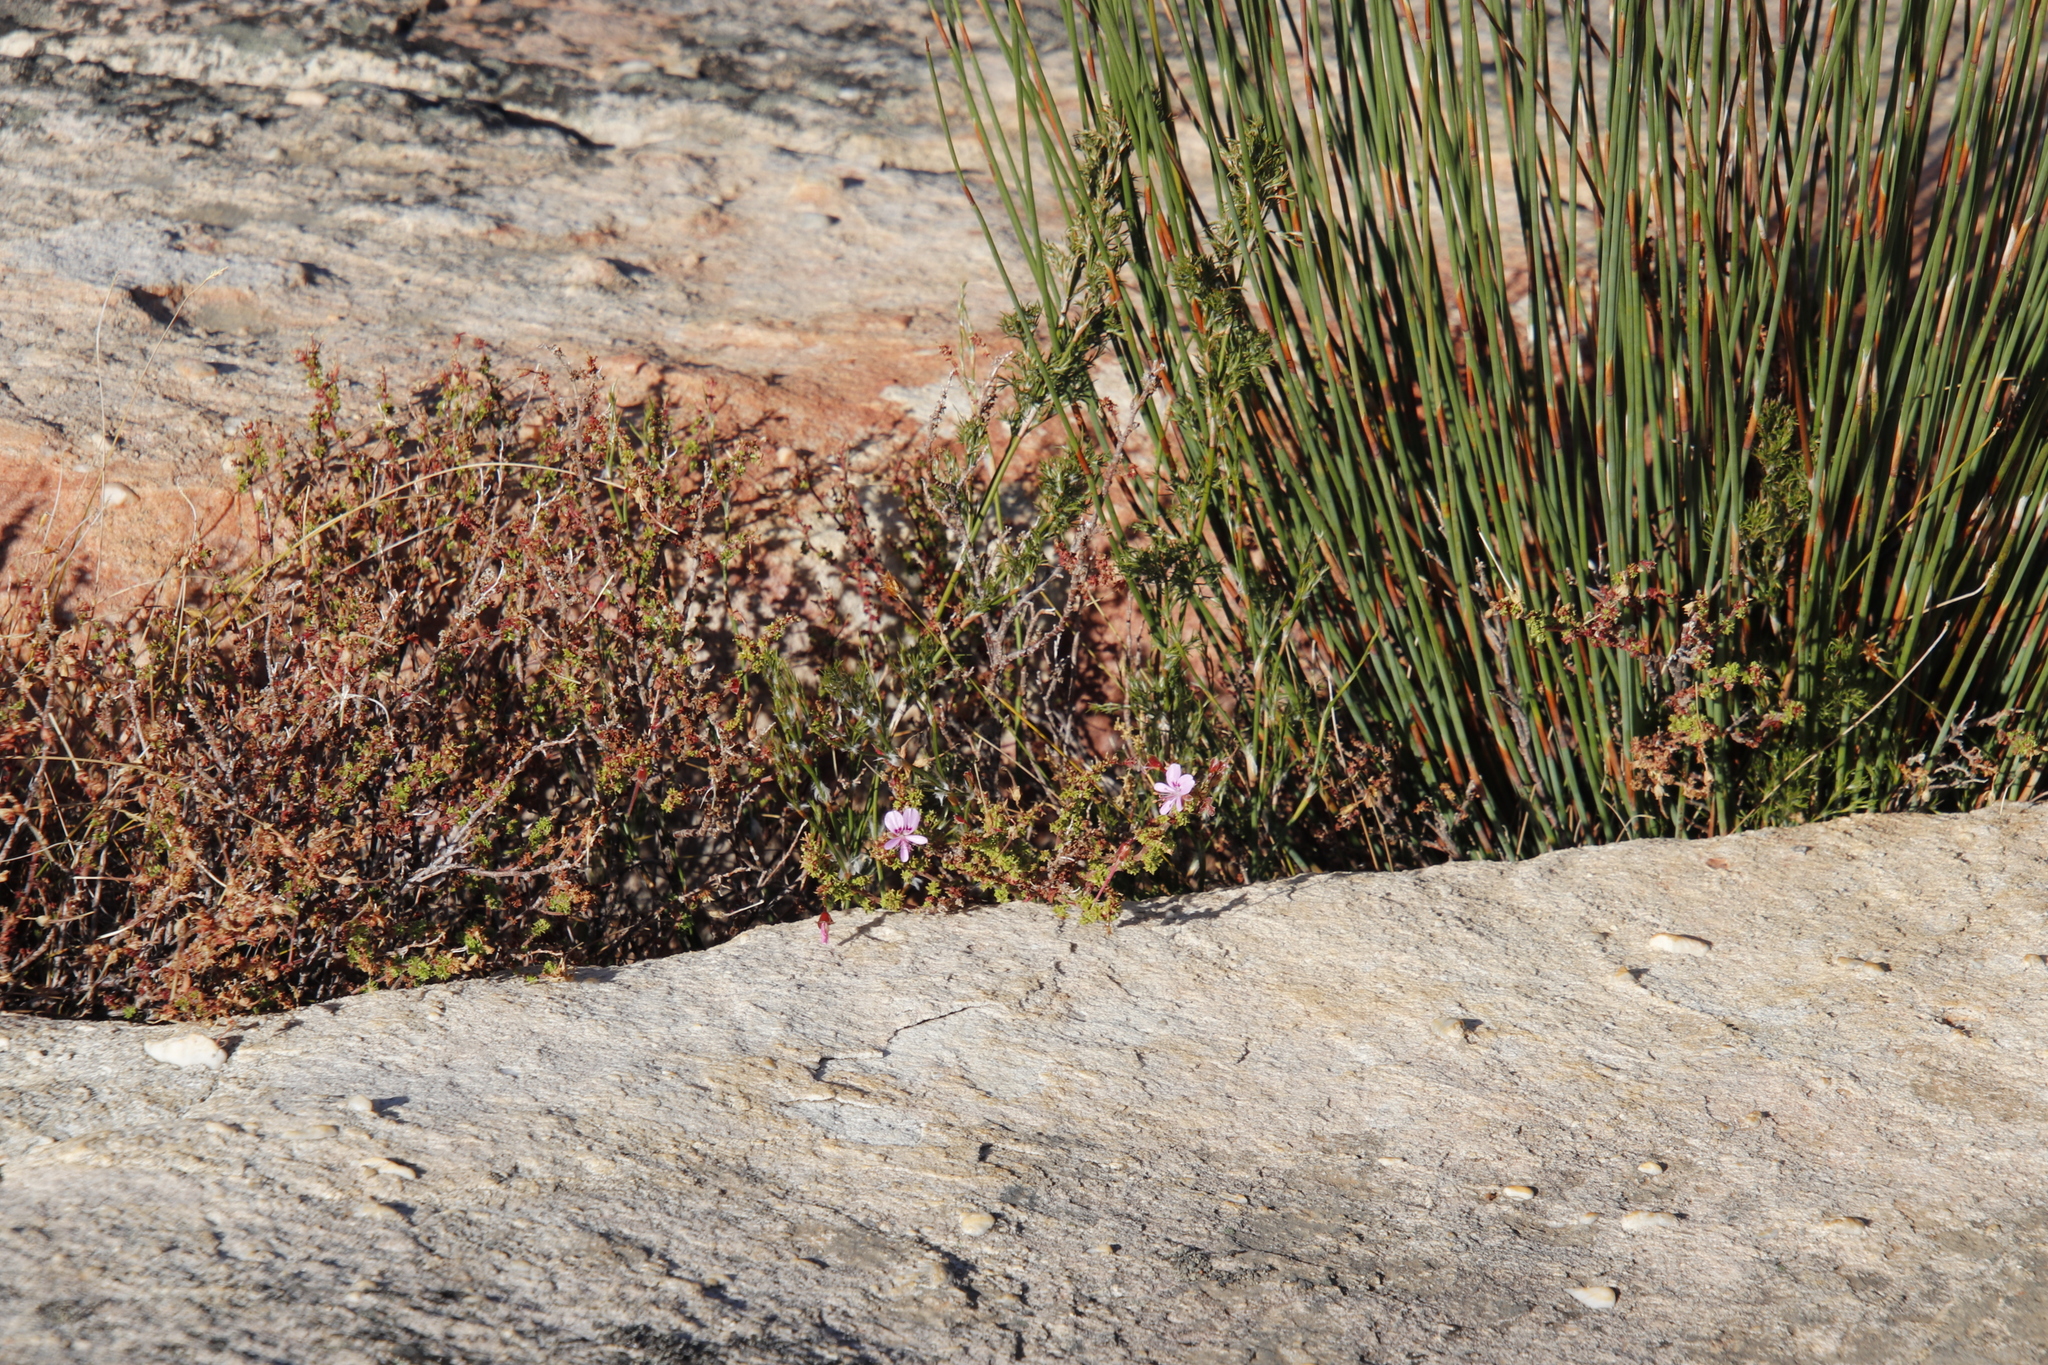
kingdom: Plantae
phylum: Tracheophyta
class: Magnoliopsida
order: Geraniales
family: Geraniaceae
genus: Pelargonium
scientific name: Pelargonium englerianum
